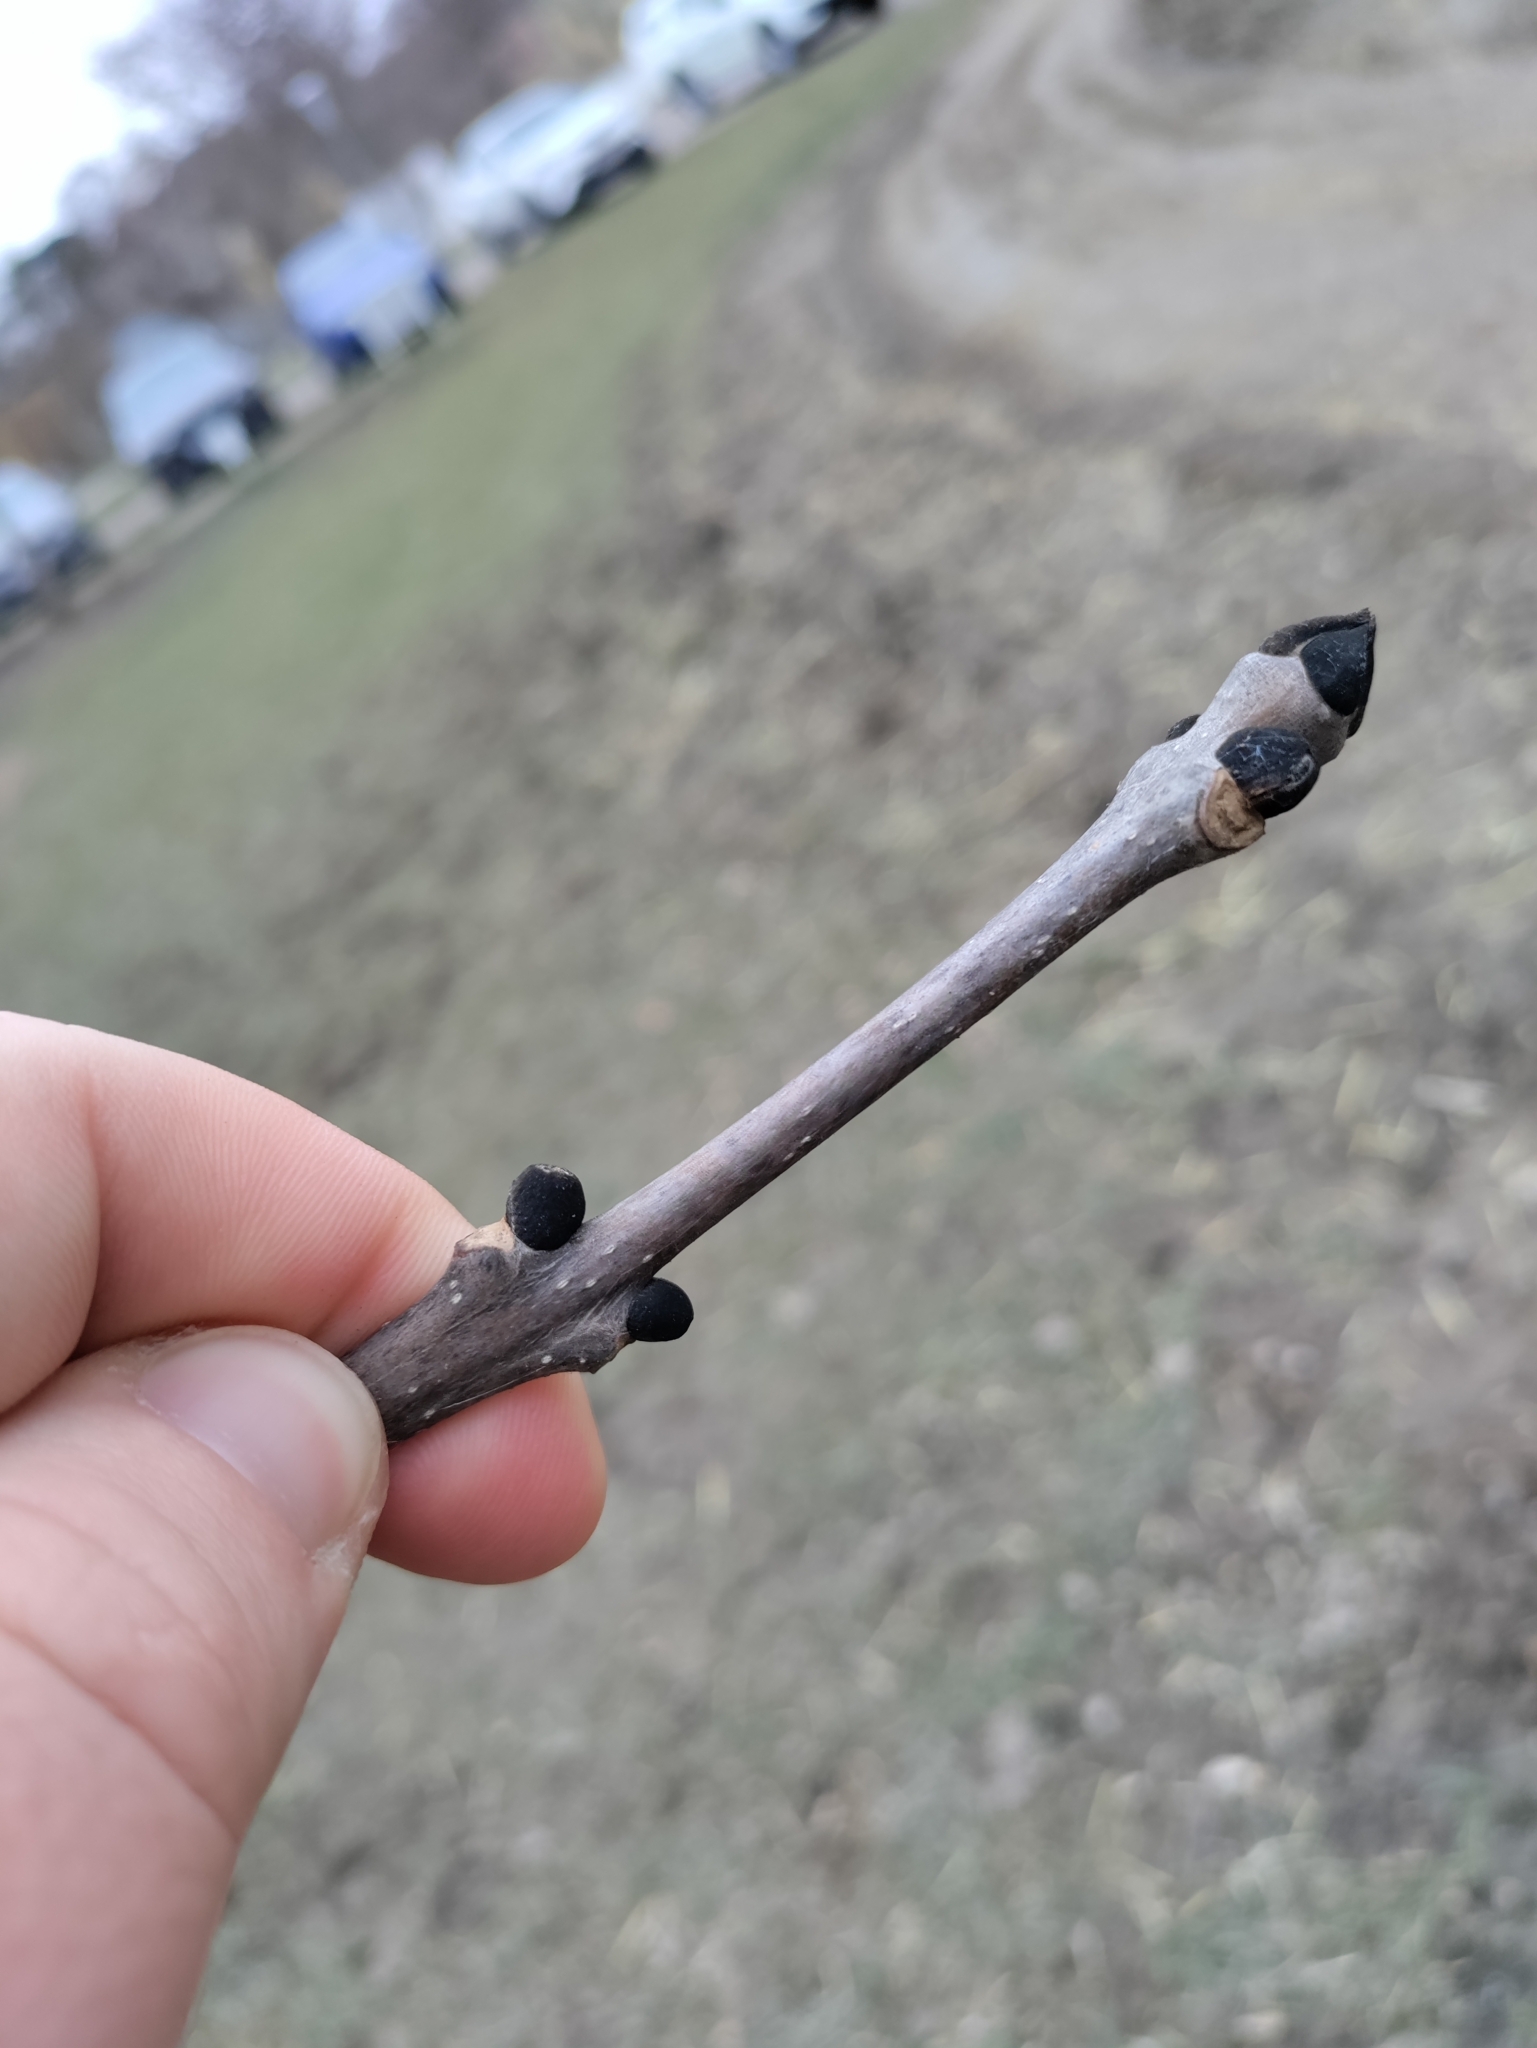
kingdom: Plantae
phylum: Tracheophyta
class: Magnoliopsida
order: Lamiales
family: Oleaceae
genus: Fraxinus
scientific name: Fraxinus excelsior
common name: European ash
